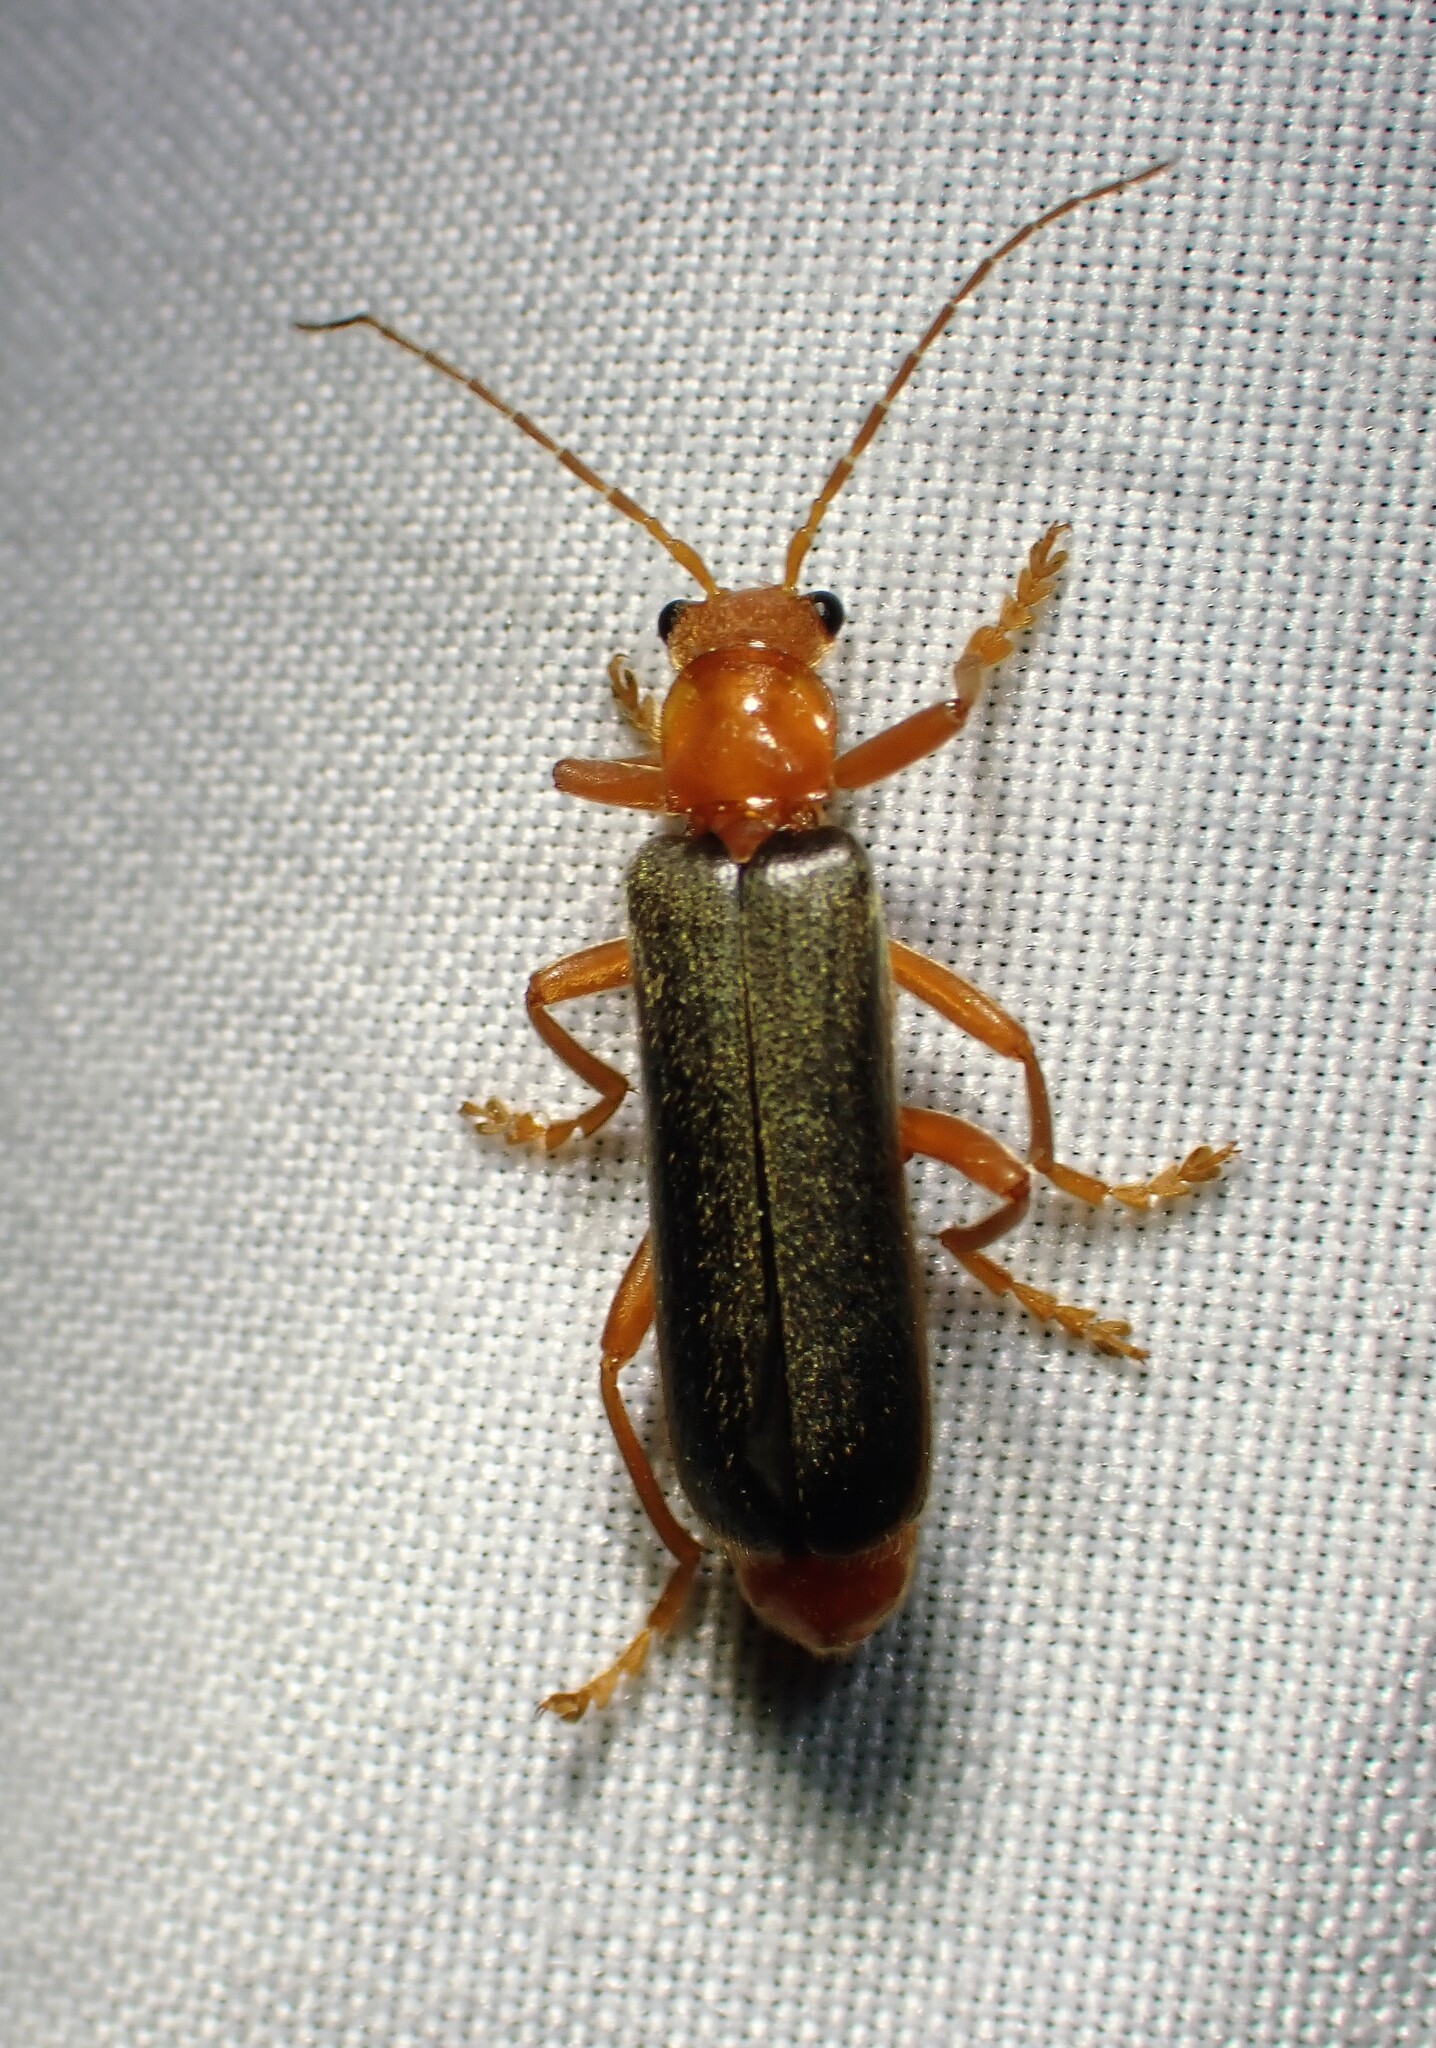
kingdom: Animalia
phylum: Arthropoda
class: Insecta
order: Coleoptera
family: Cantharidae
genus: Pacificanthia
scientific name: Pacificanthia rotundicollis
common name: Brown leatherwing beetle
